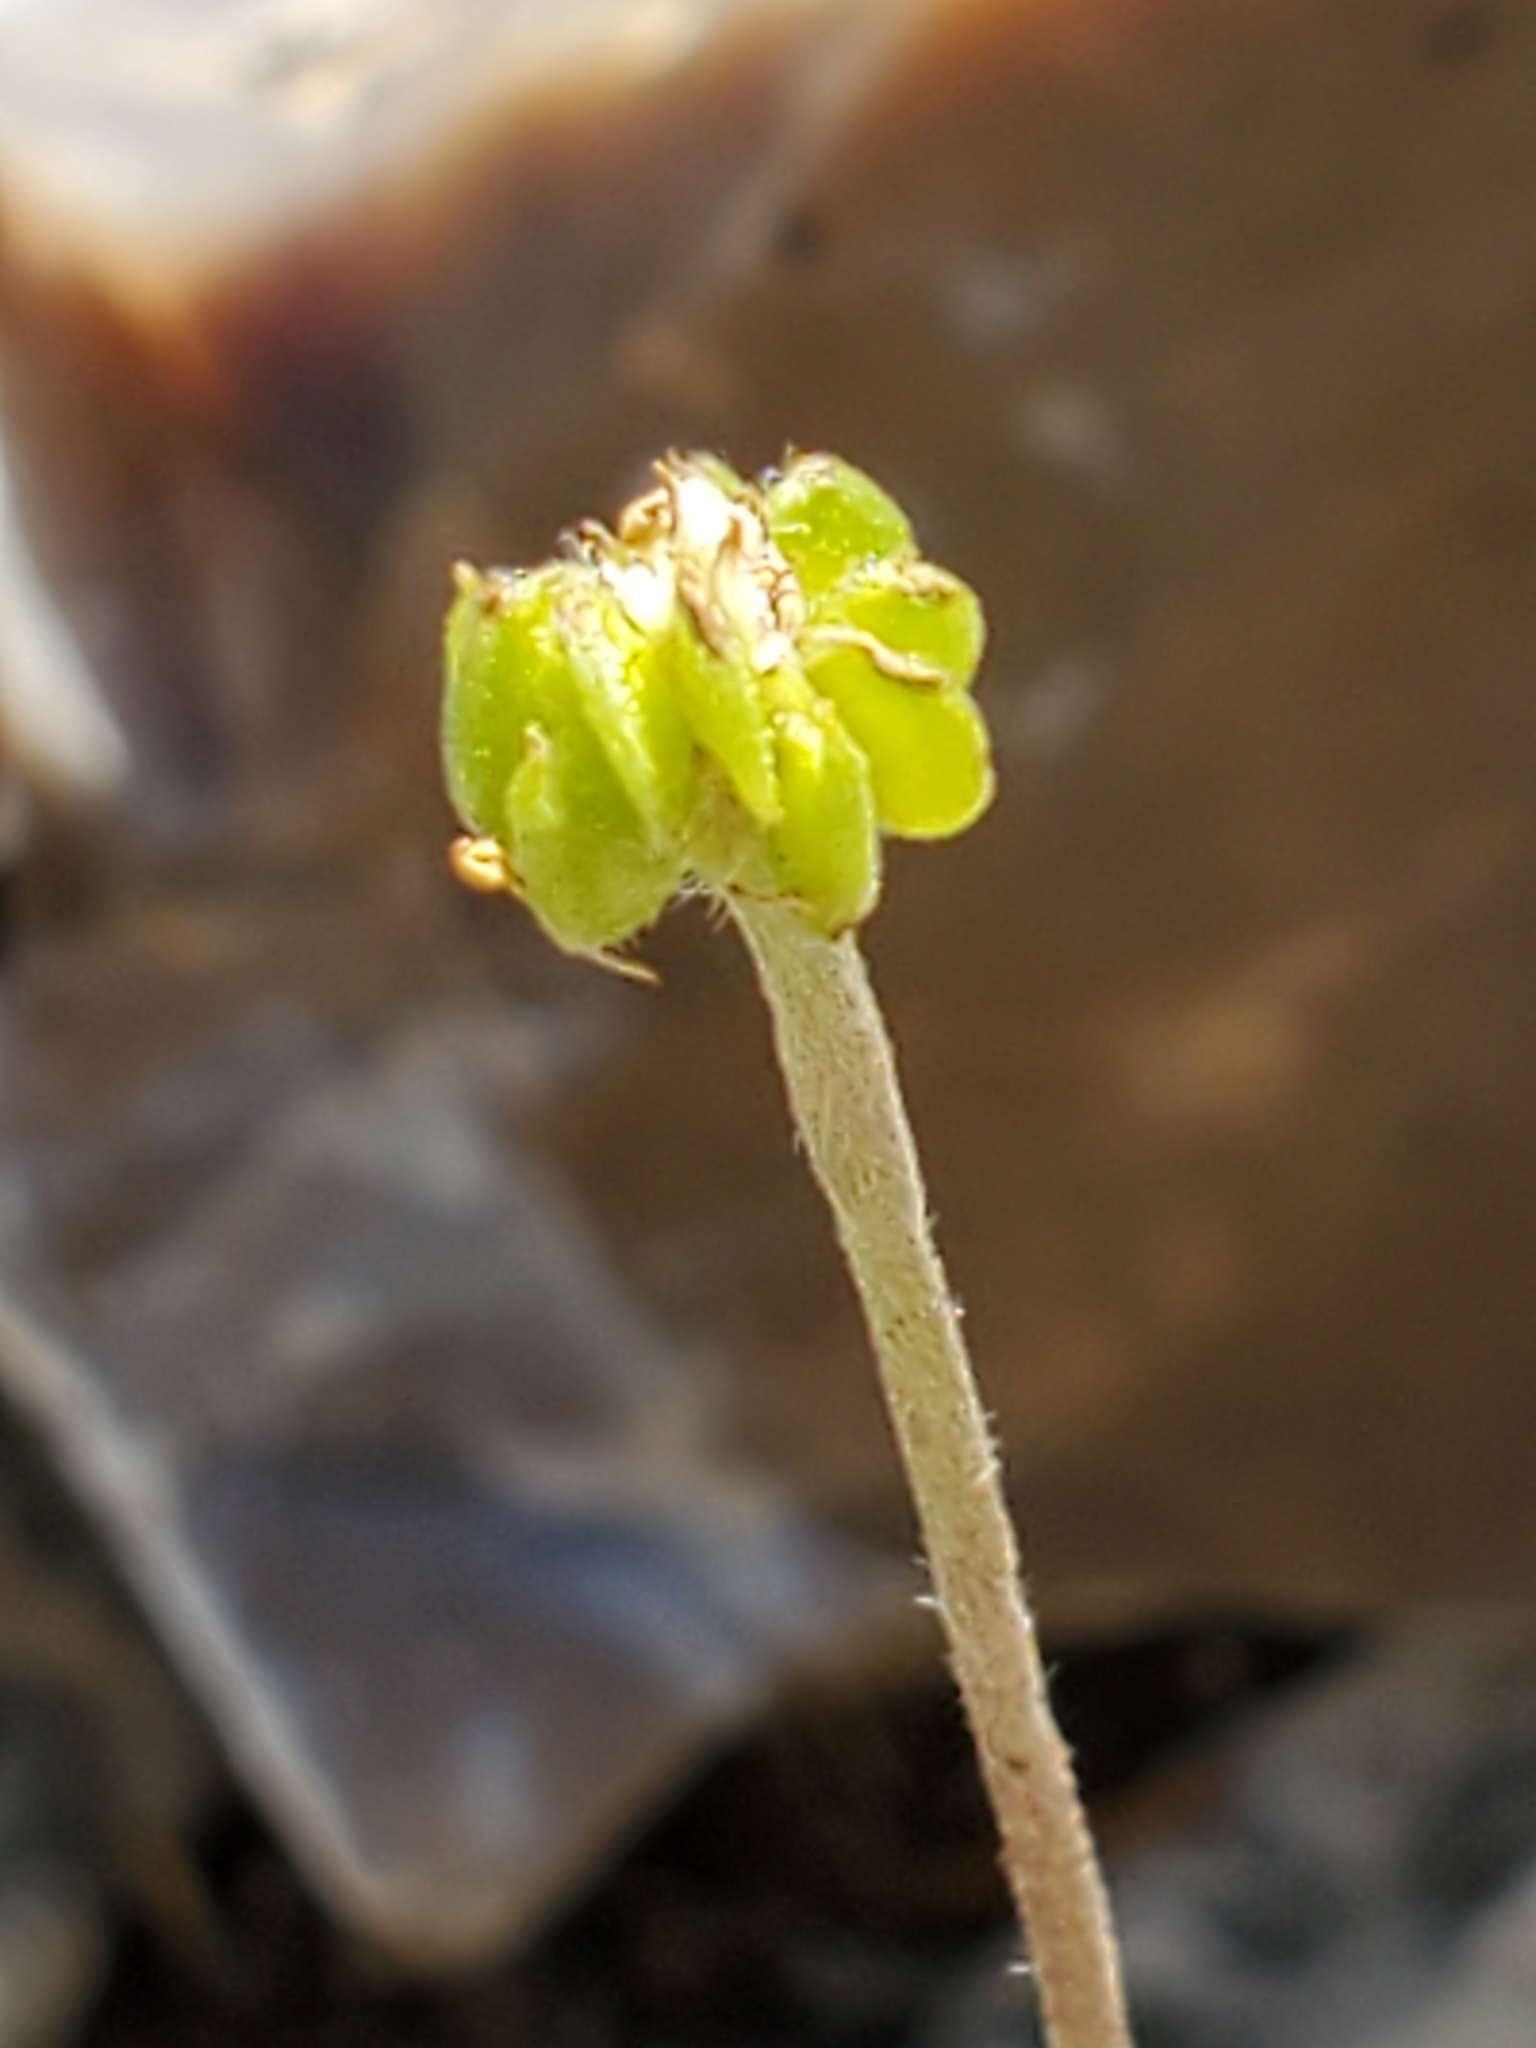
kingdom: Plantae
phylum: Tracheophyta
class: Magnoliopsida
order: Ranunculales
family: Ranunculaceae
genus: Anemone
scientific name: Anemone edwardsiana
